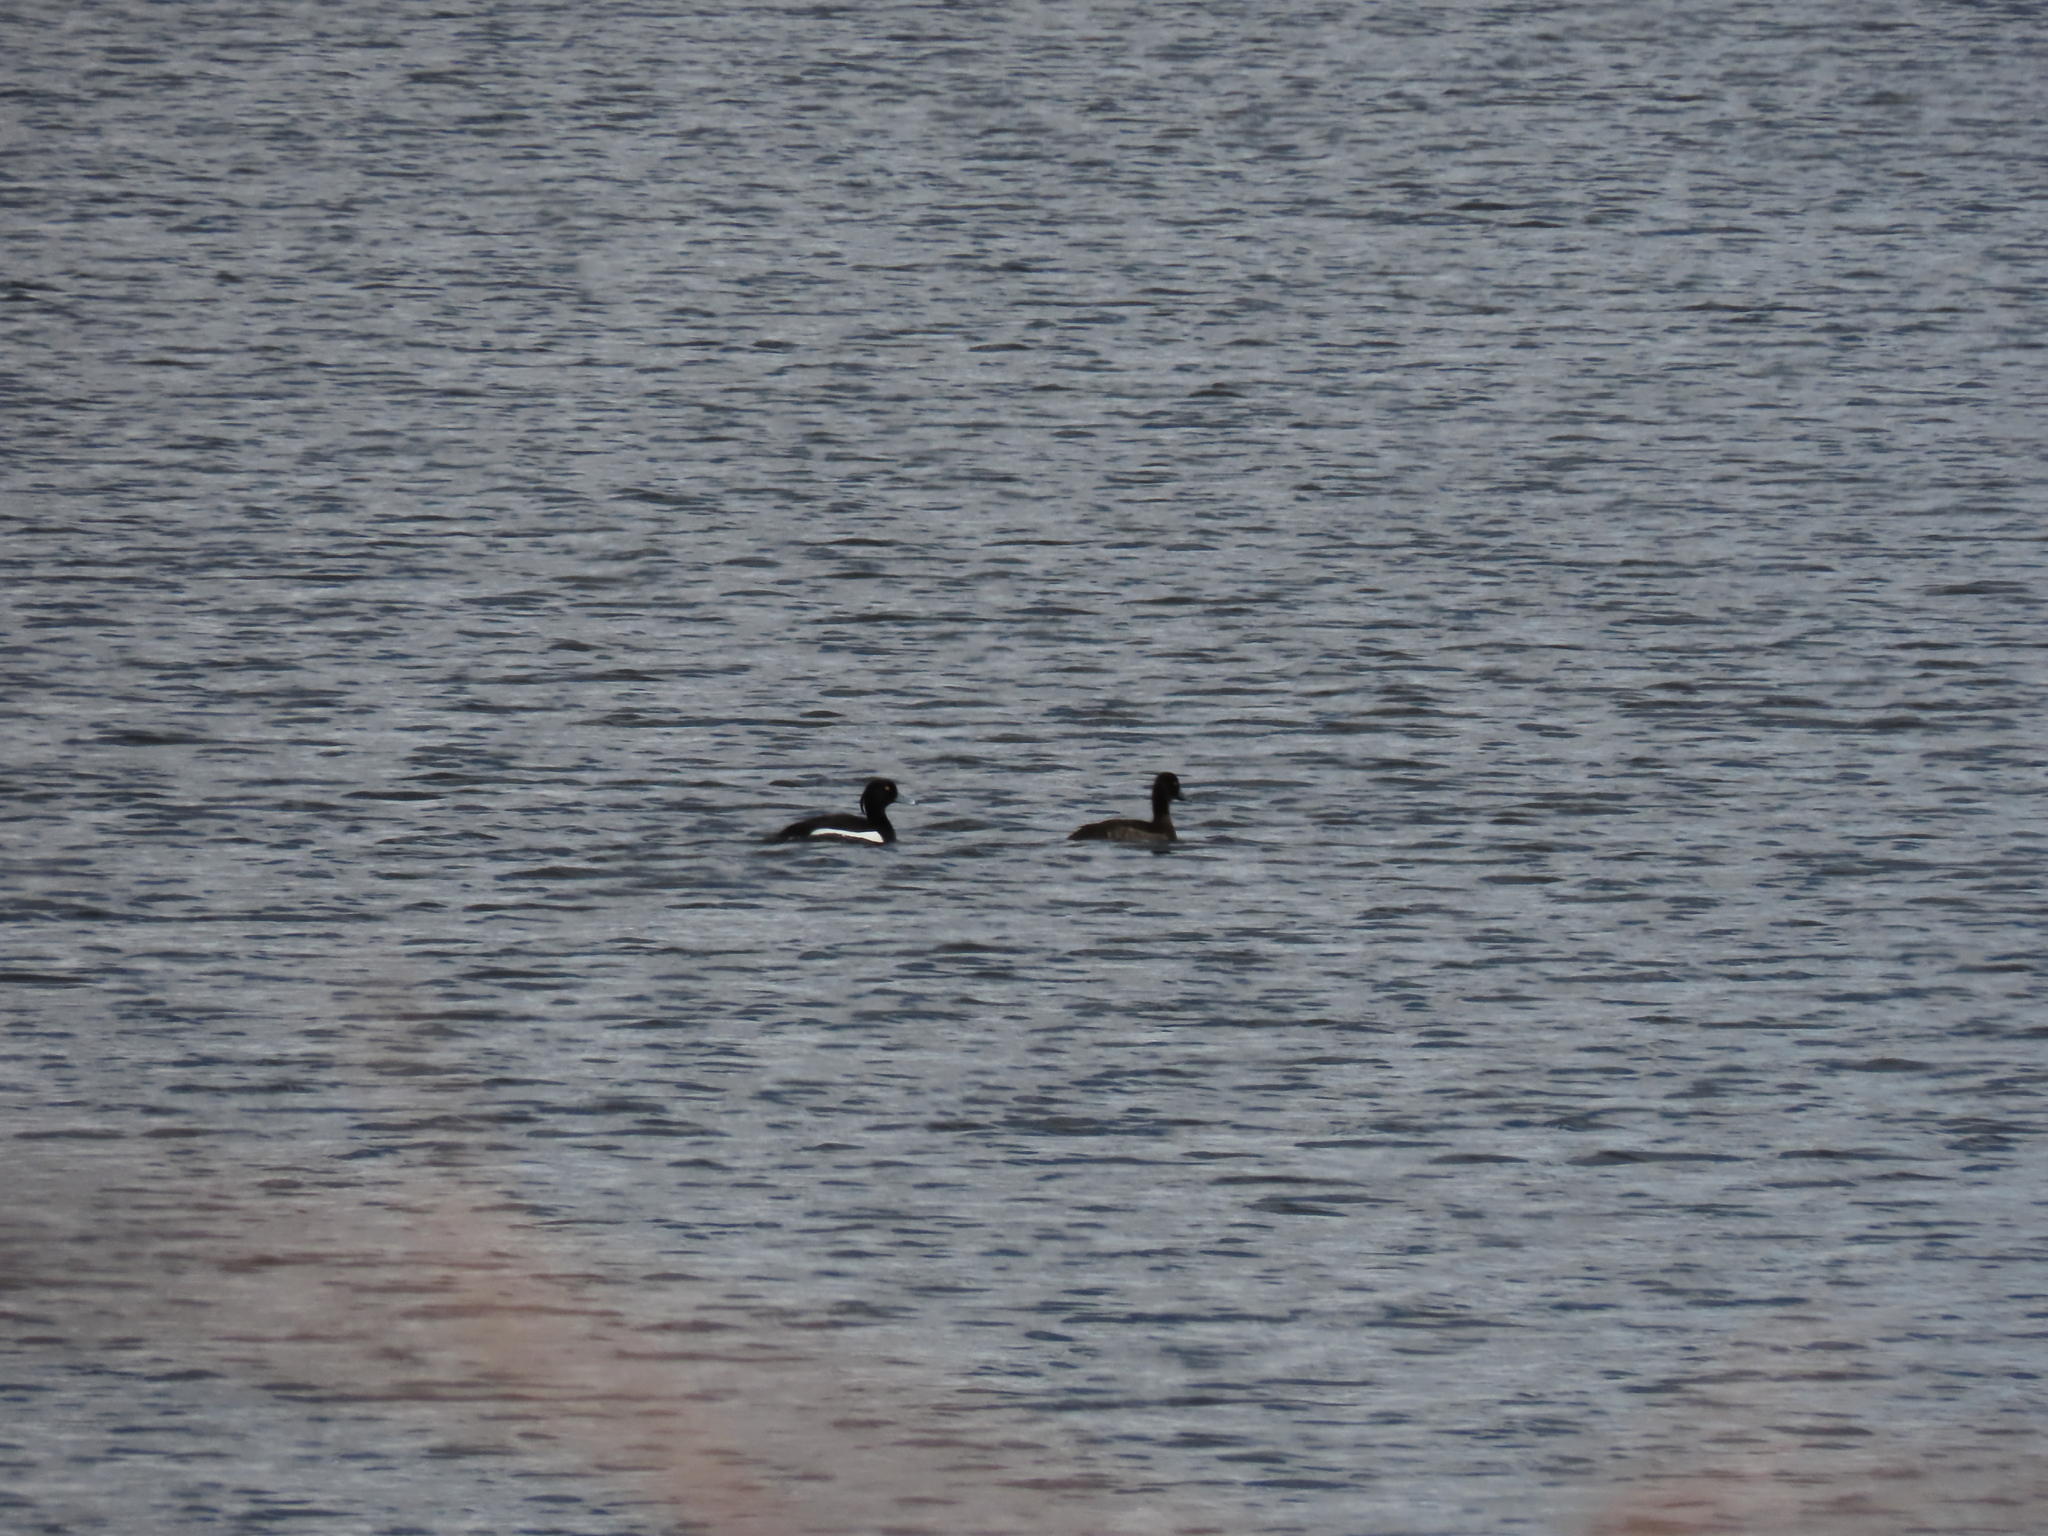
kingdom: Animalia
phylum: Chordata
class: Aves
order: Anseriformes
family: Anatidae
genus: Aythya
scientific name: Aythya fuligula
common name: Tufted duck
